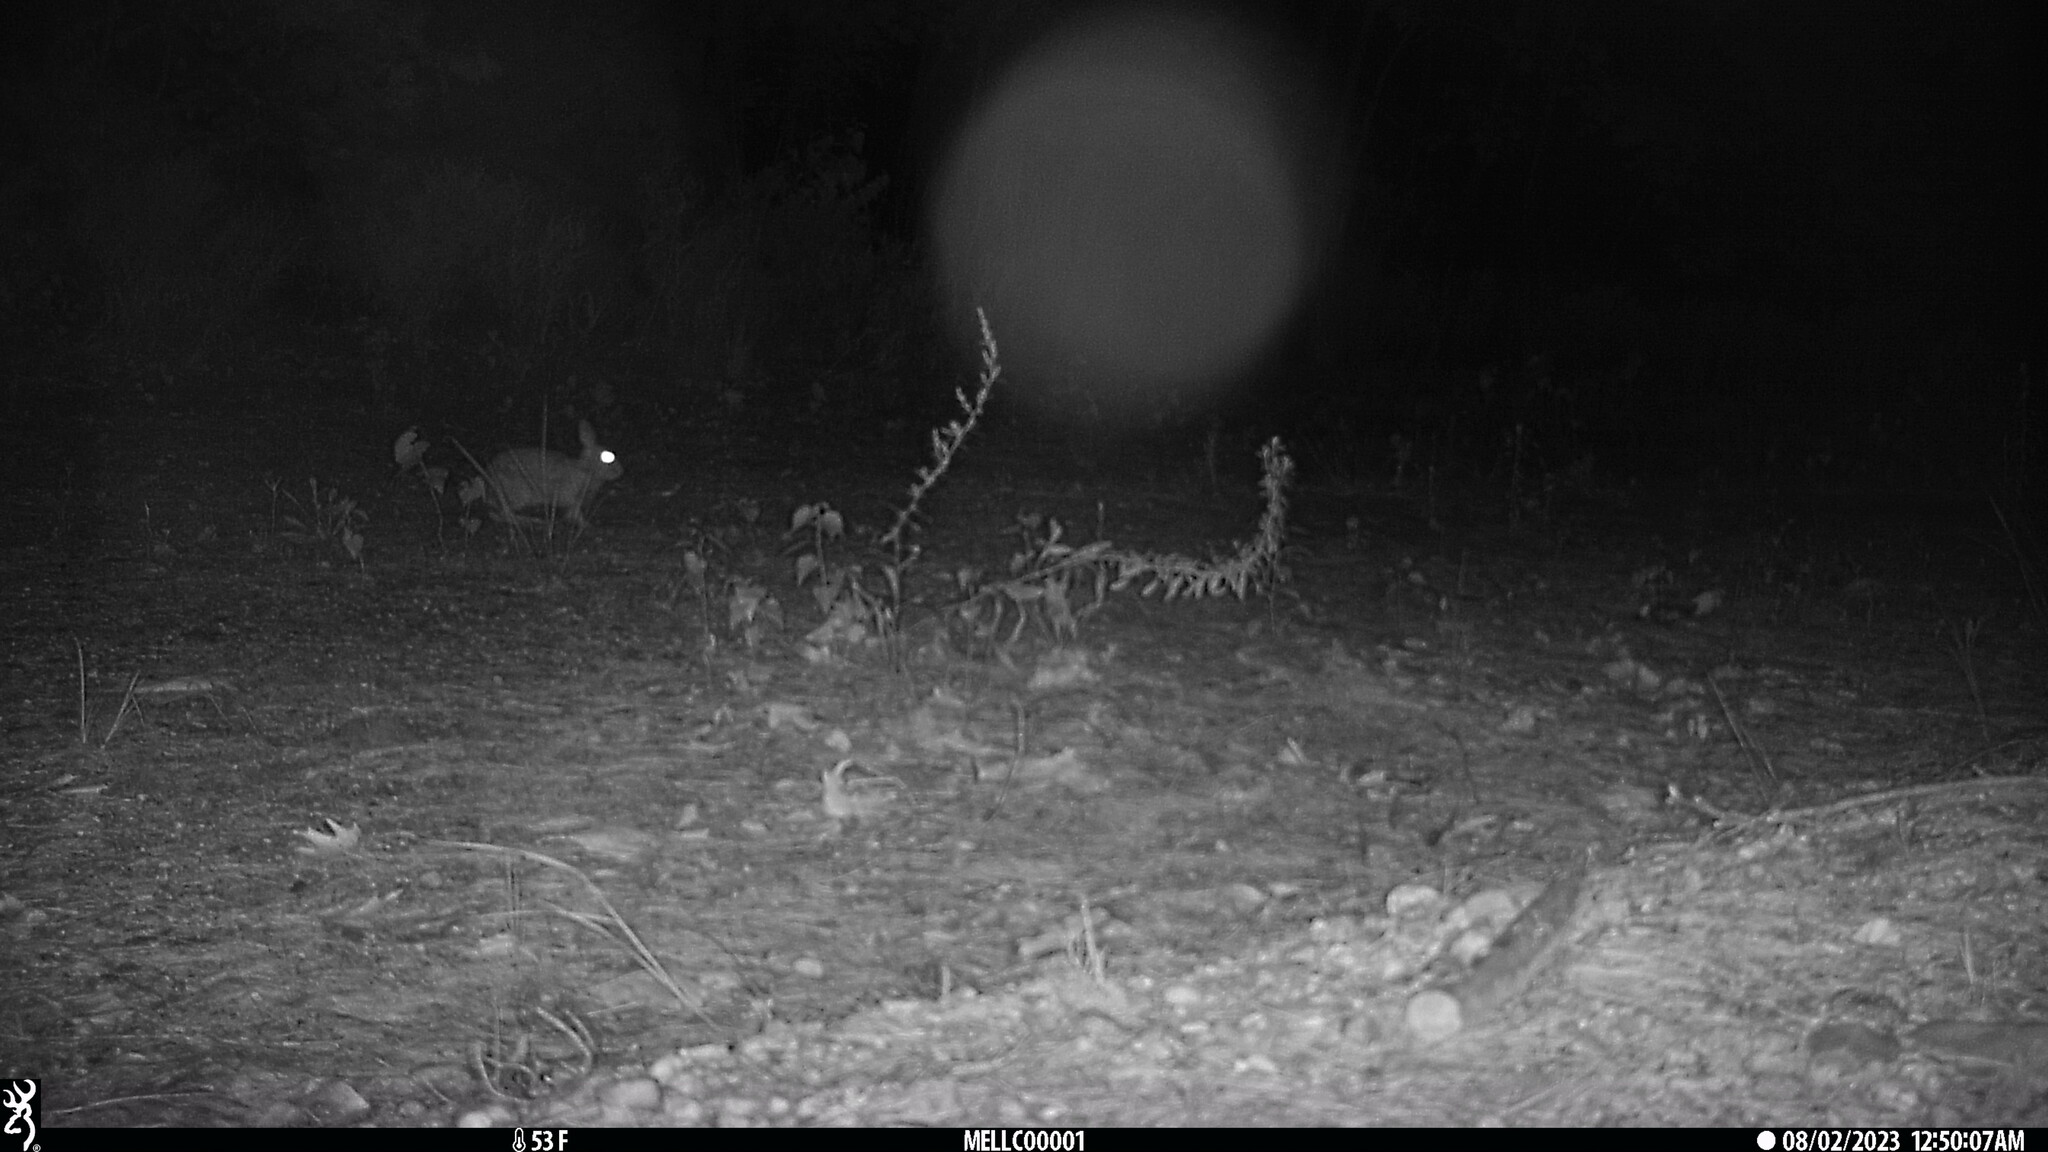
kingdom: Animalia
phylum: Chordata
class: Mammalia
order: Lagomorpha
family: Leporidae
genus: Sylvilagus
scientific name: Sylvilagus floridanus
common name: Eastern cottontail
